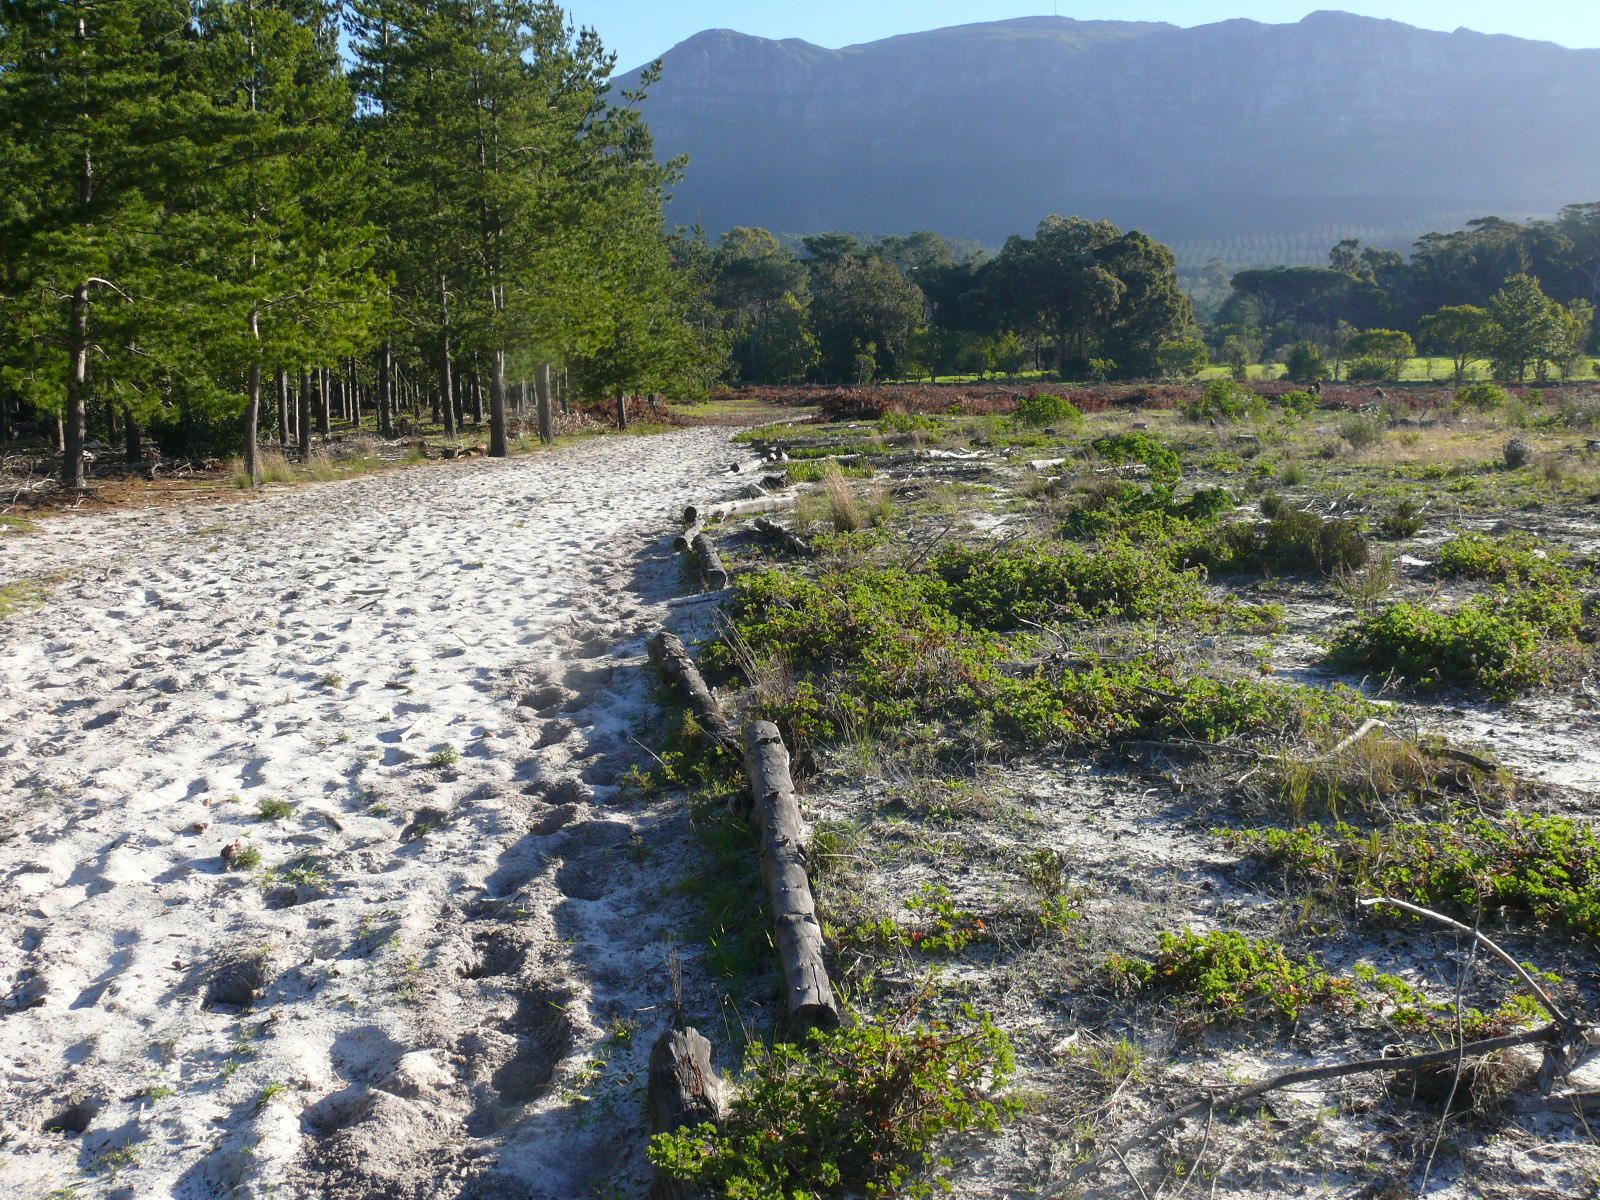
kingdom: Plantae
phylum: Tracheophyta
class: Magnoliopsida
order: Geraniales
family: Geraniaceae
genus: Pelargonium
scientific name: Pelargonium capitatum
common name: Rose scented geranium
